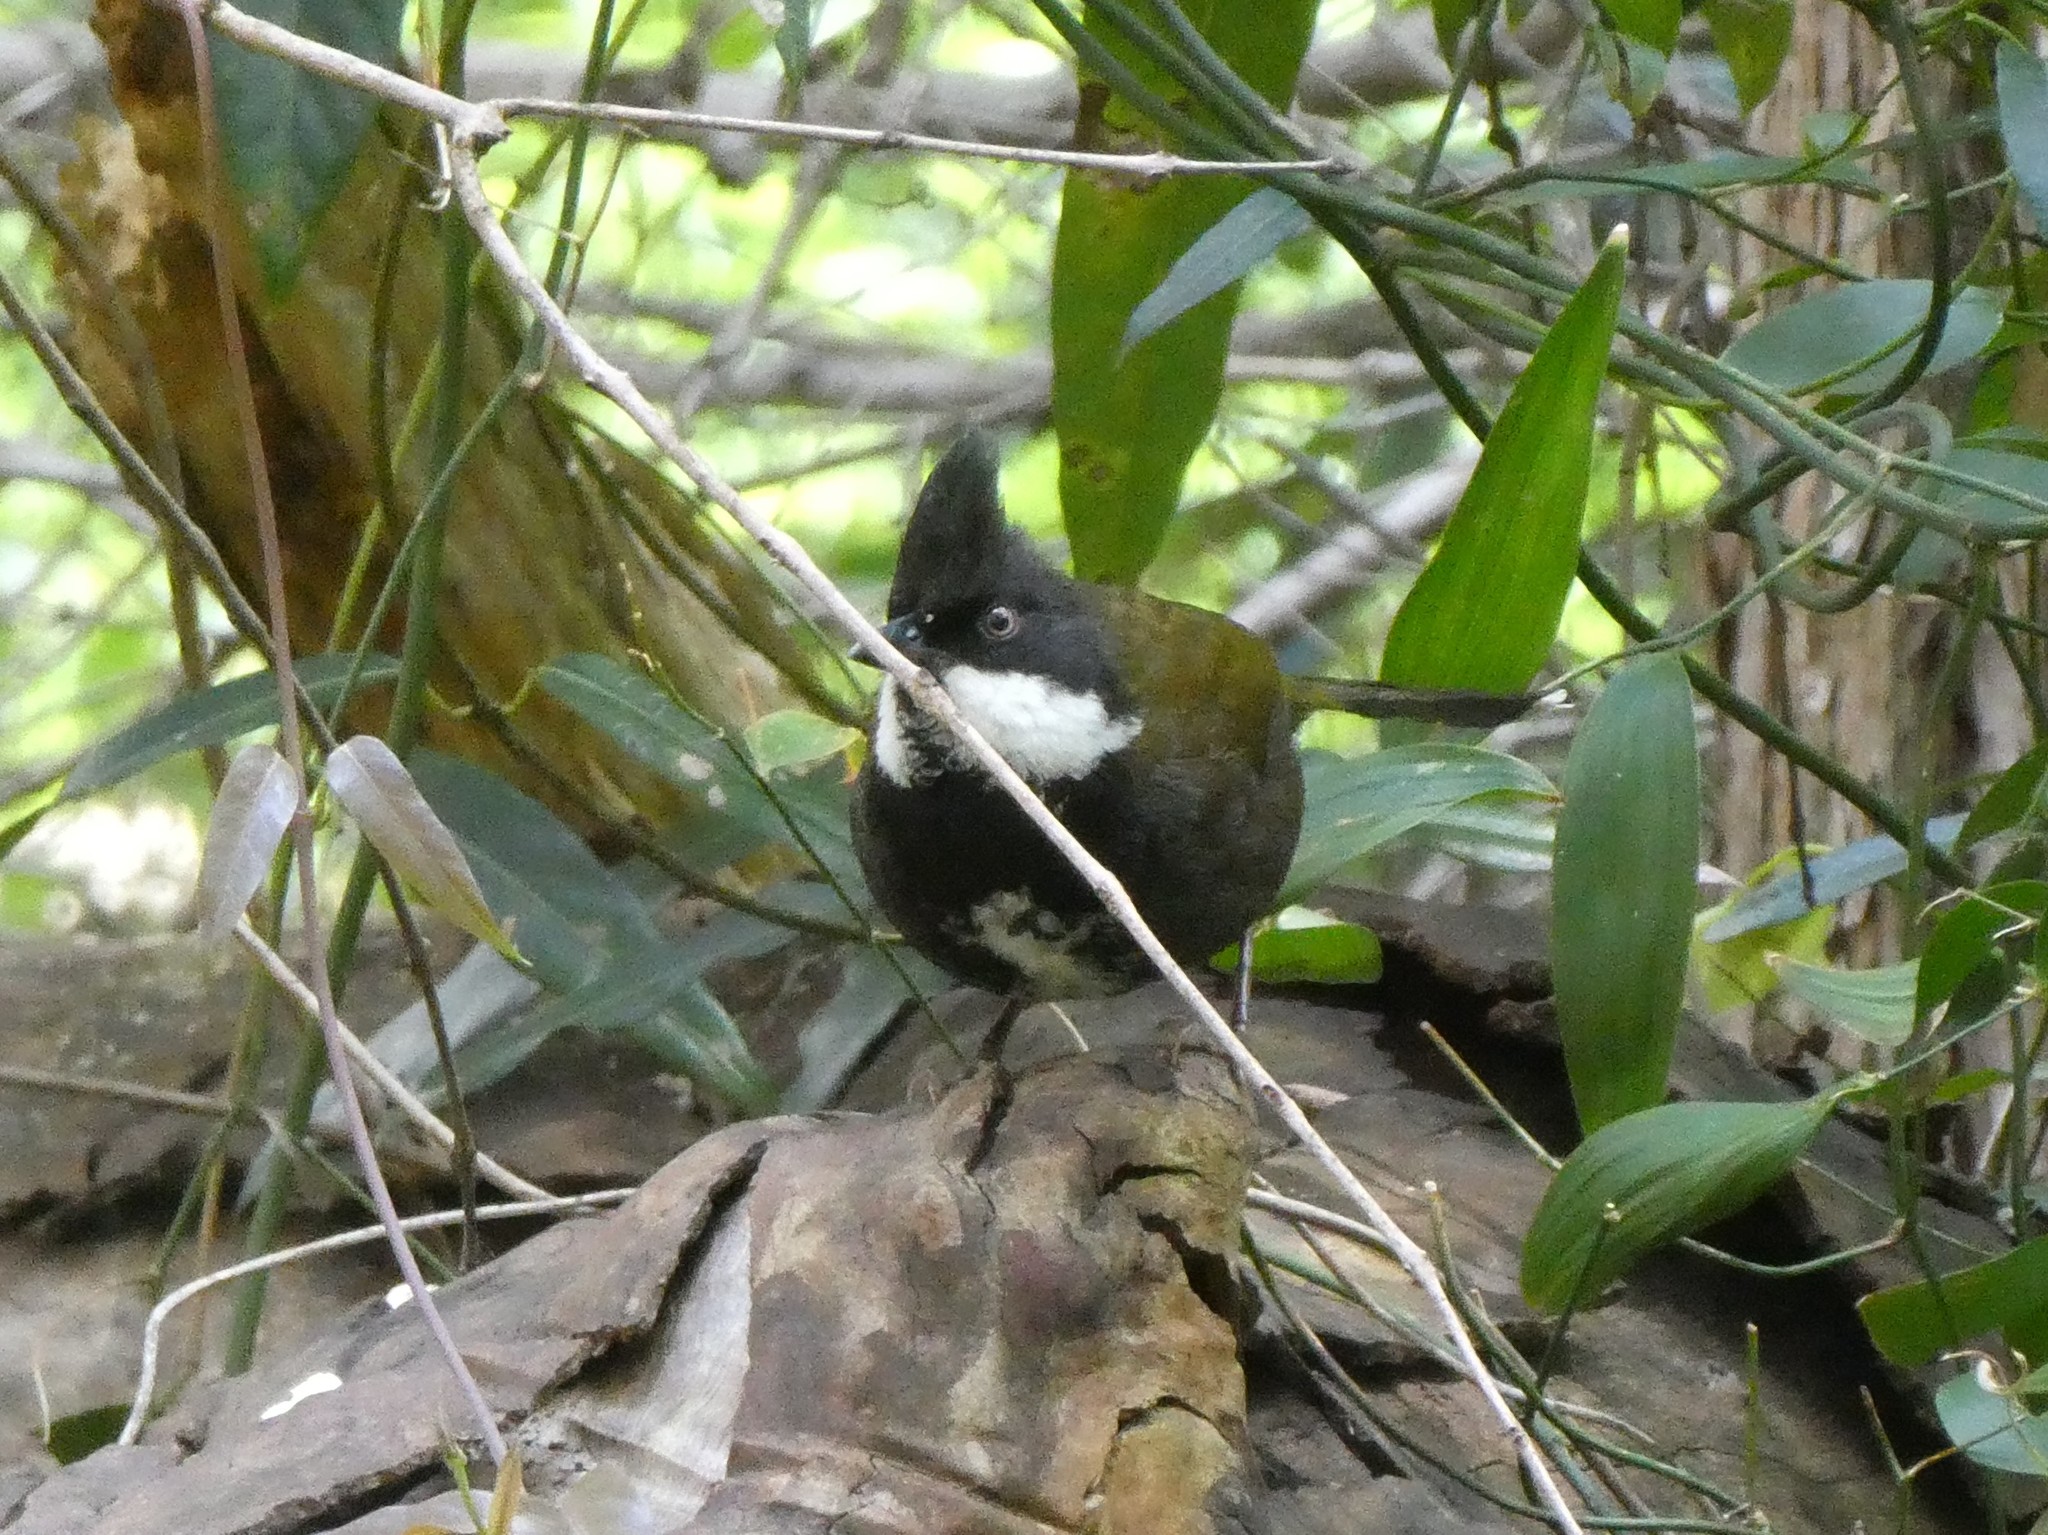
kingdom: Animalia
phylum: Chordata
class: Aves
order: Passeriformes
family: Psophodidae
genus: Psophodes
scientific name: Psophodes olivaceus
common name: Eastern whipbird
